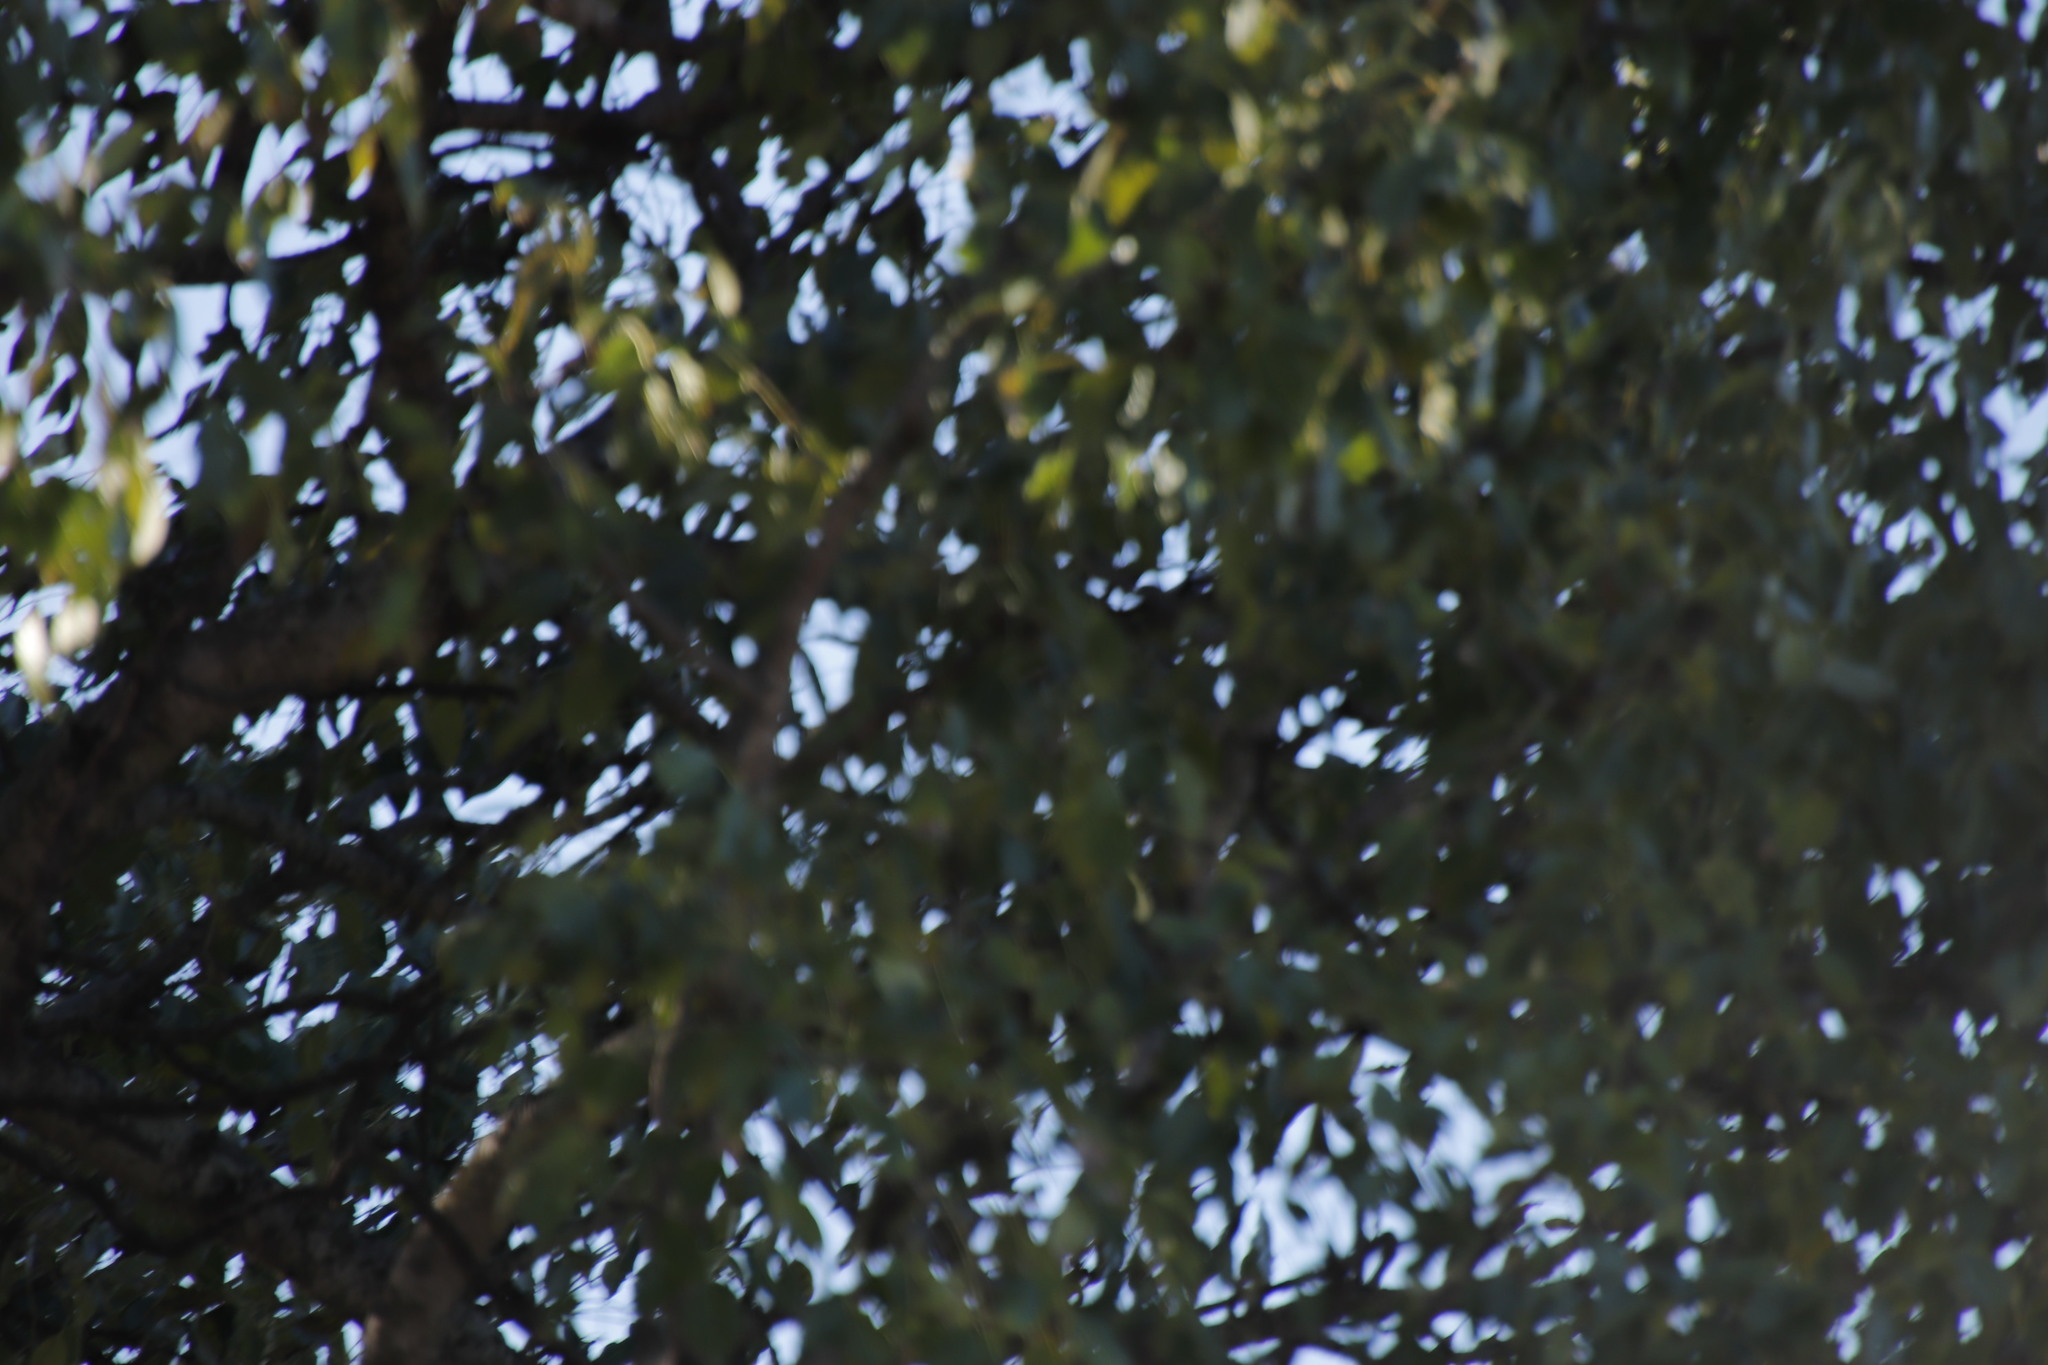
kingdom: Plantae
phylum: Tracheophyta
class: Magnoliopsida
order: Sapindales
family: Anacardiaceae
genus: Sclerocarya
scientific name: Sclerocarya birrea
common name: Marula
